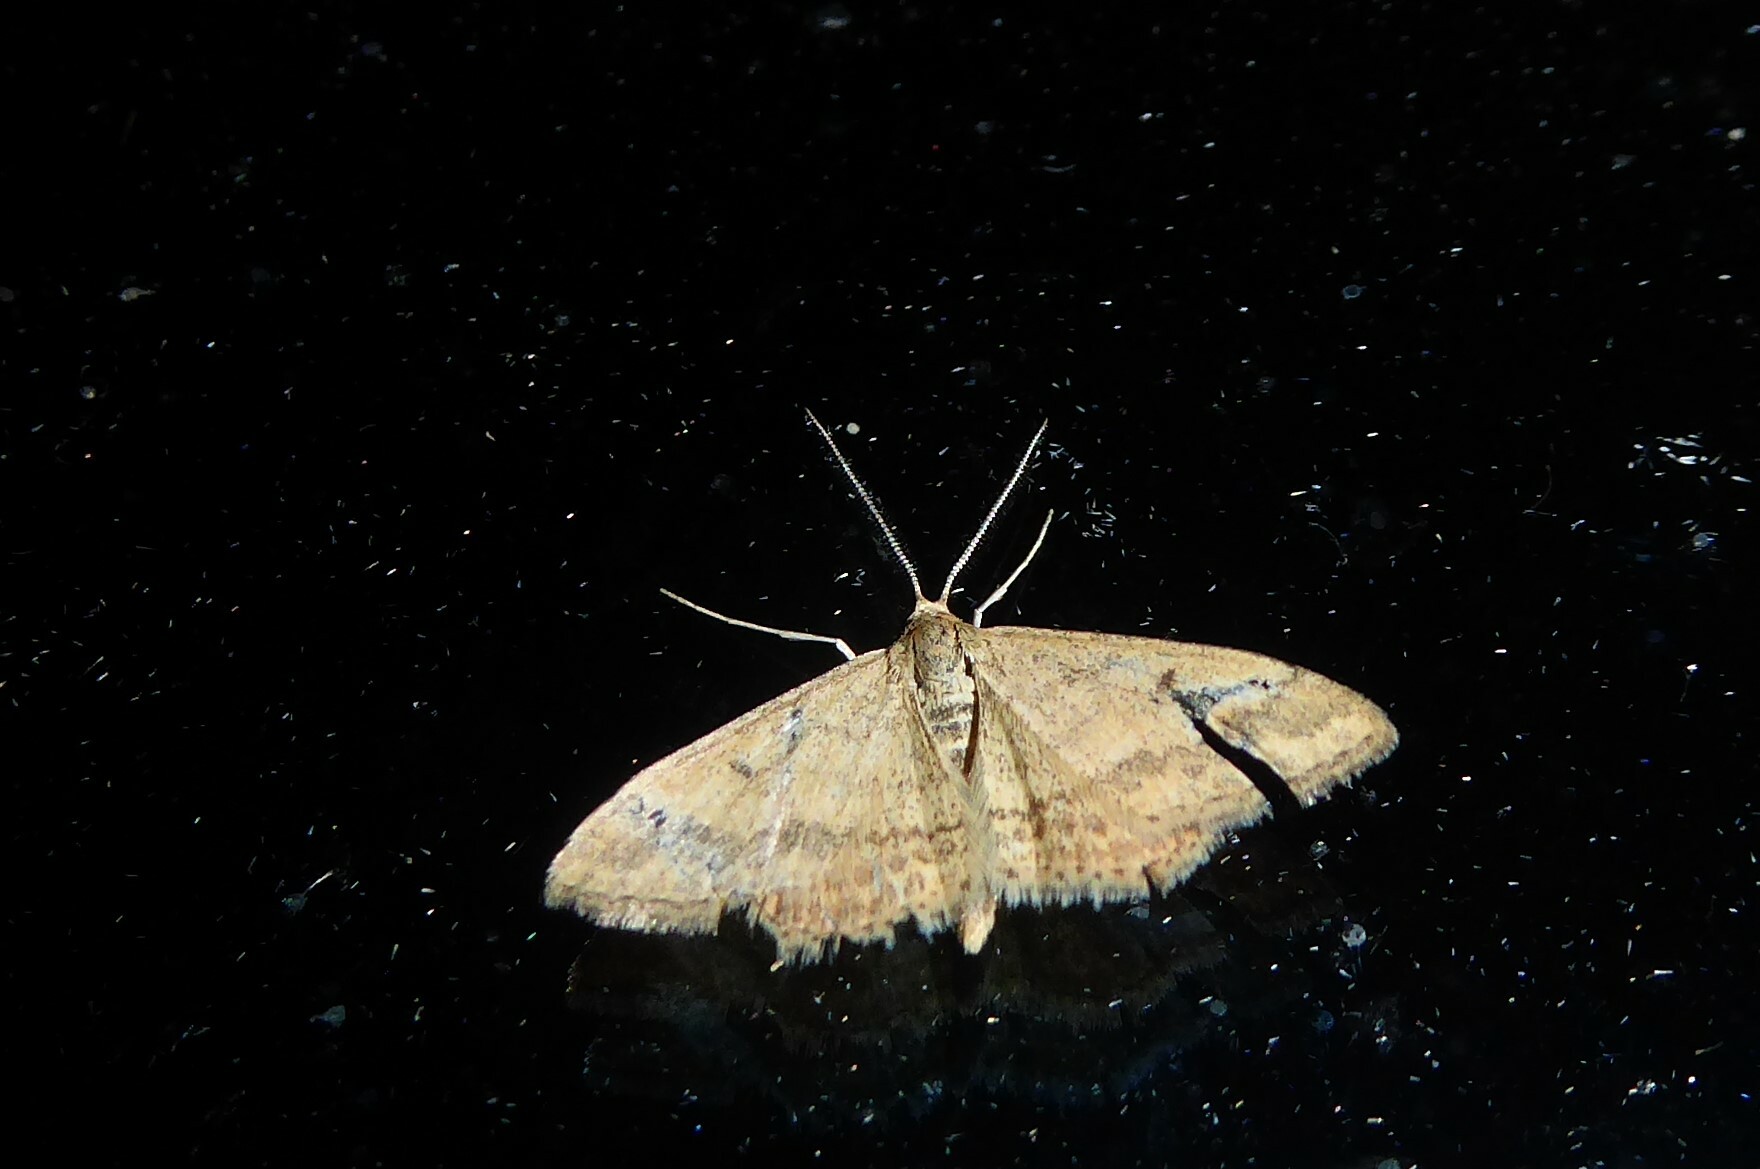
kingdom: Animalia
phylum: Arthropoda
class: Insecta
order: Lepidoptera
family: Geometridae
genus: Scopula
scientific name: Scopula rubraria
